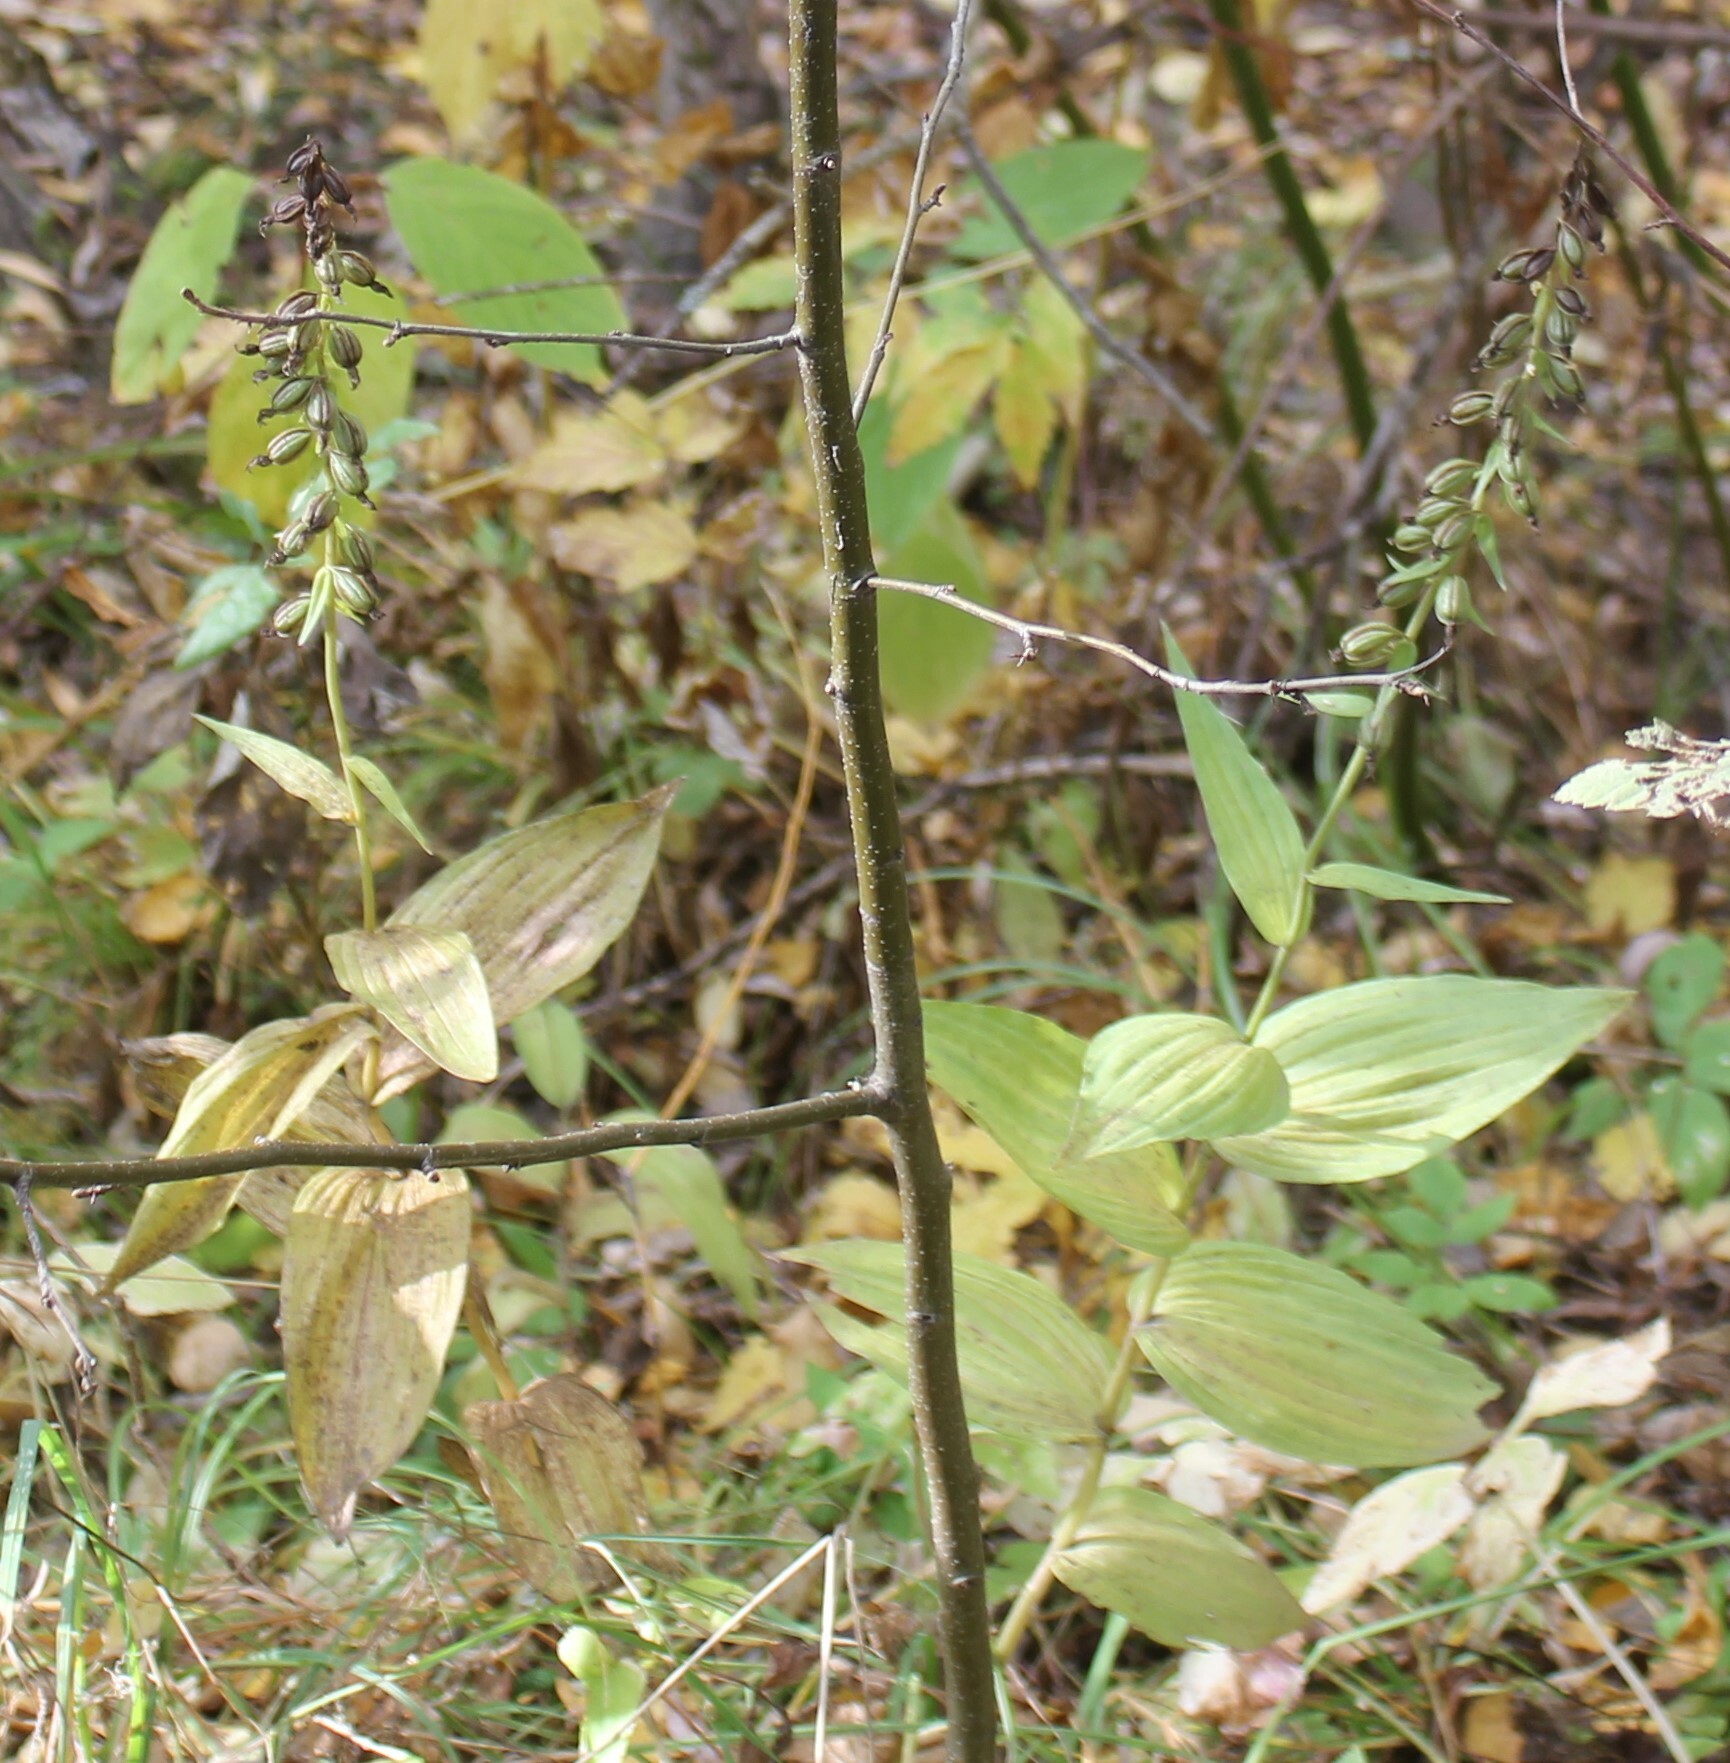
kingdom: Plantae
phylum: Tracheophyta
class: Liliopsida
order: Asparagales
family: Orchidaceae
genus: Epipactis
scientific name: Epipactis helleborine
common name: Broad-leaved helleborine
